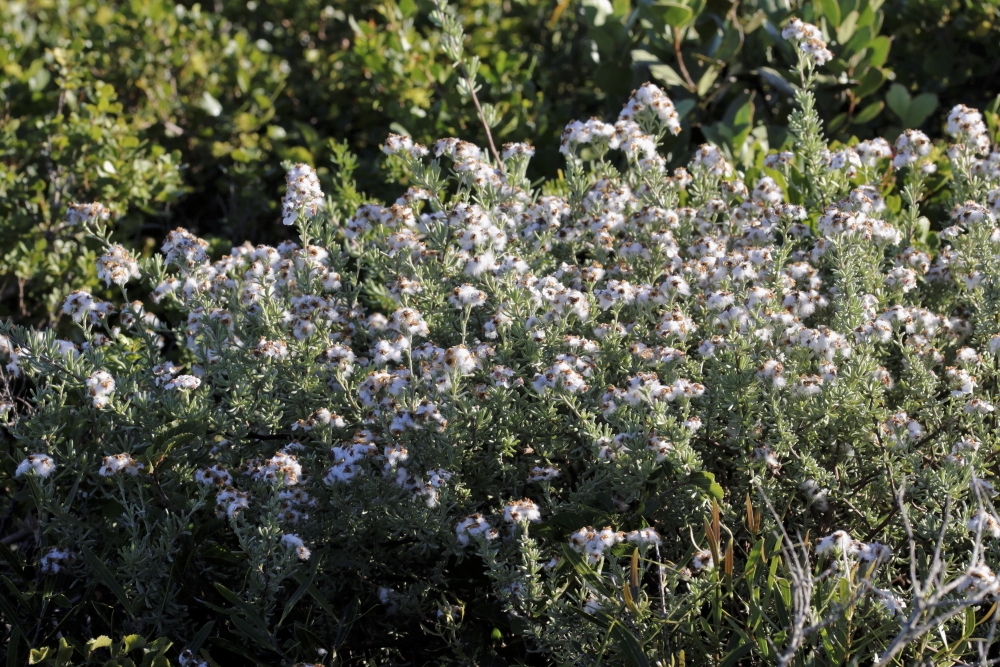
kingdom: Plantae
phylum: Tracheophyta
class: Magnoliopsida
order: Asterales
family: Asteraceae
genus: Eriocephalus
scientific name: Eriocephalus africanus
